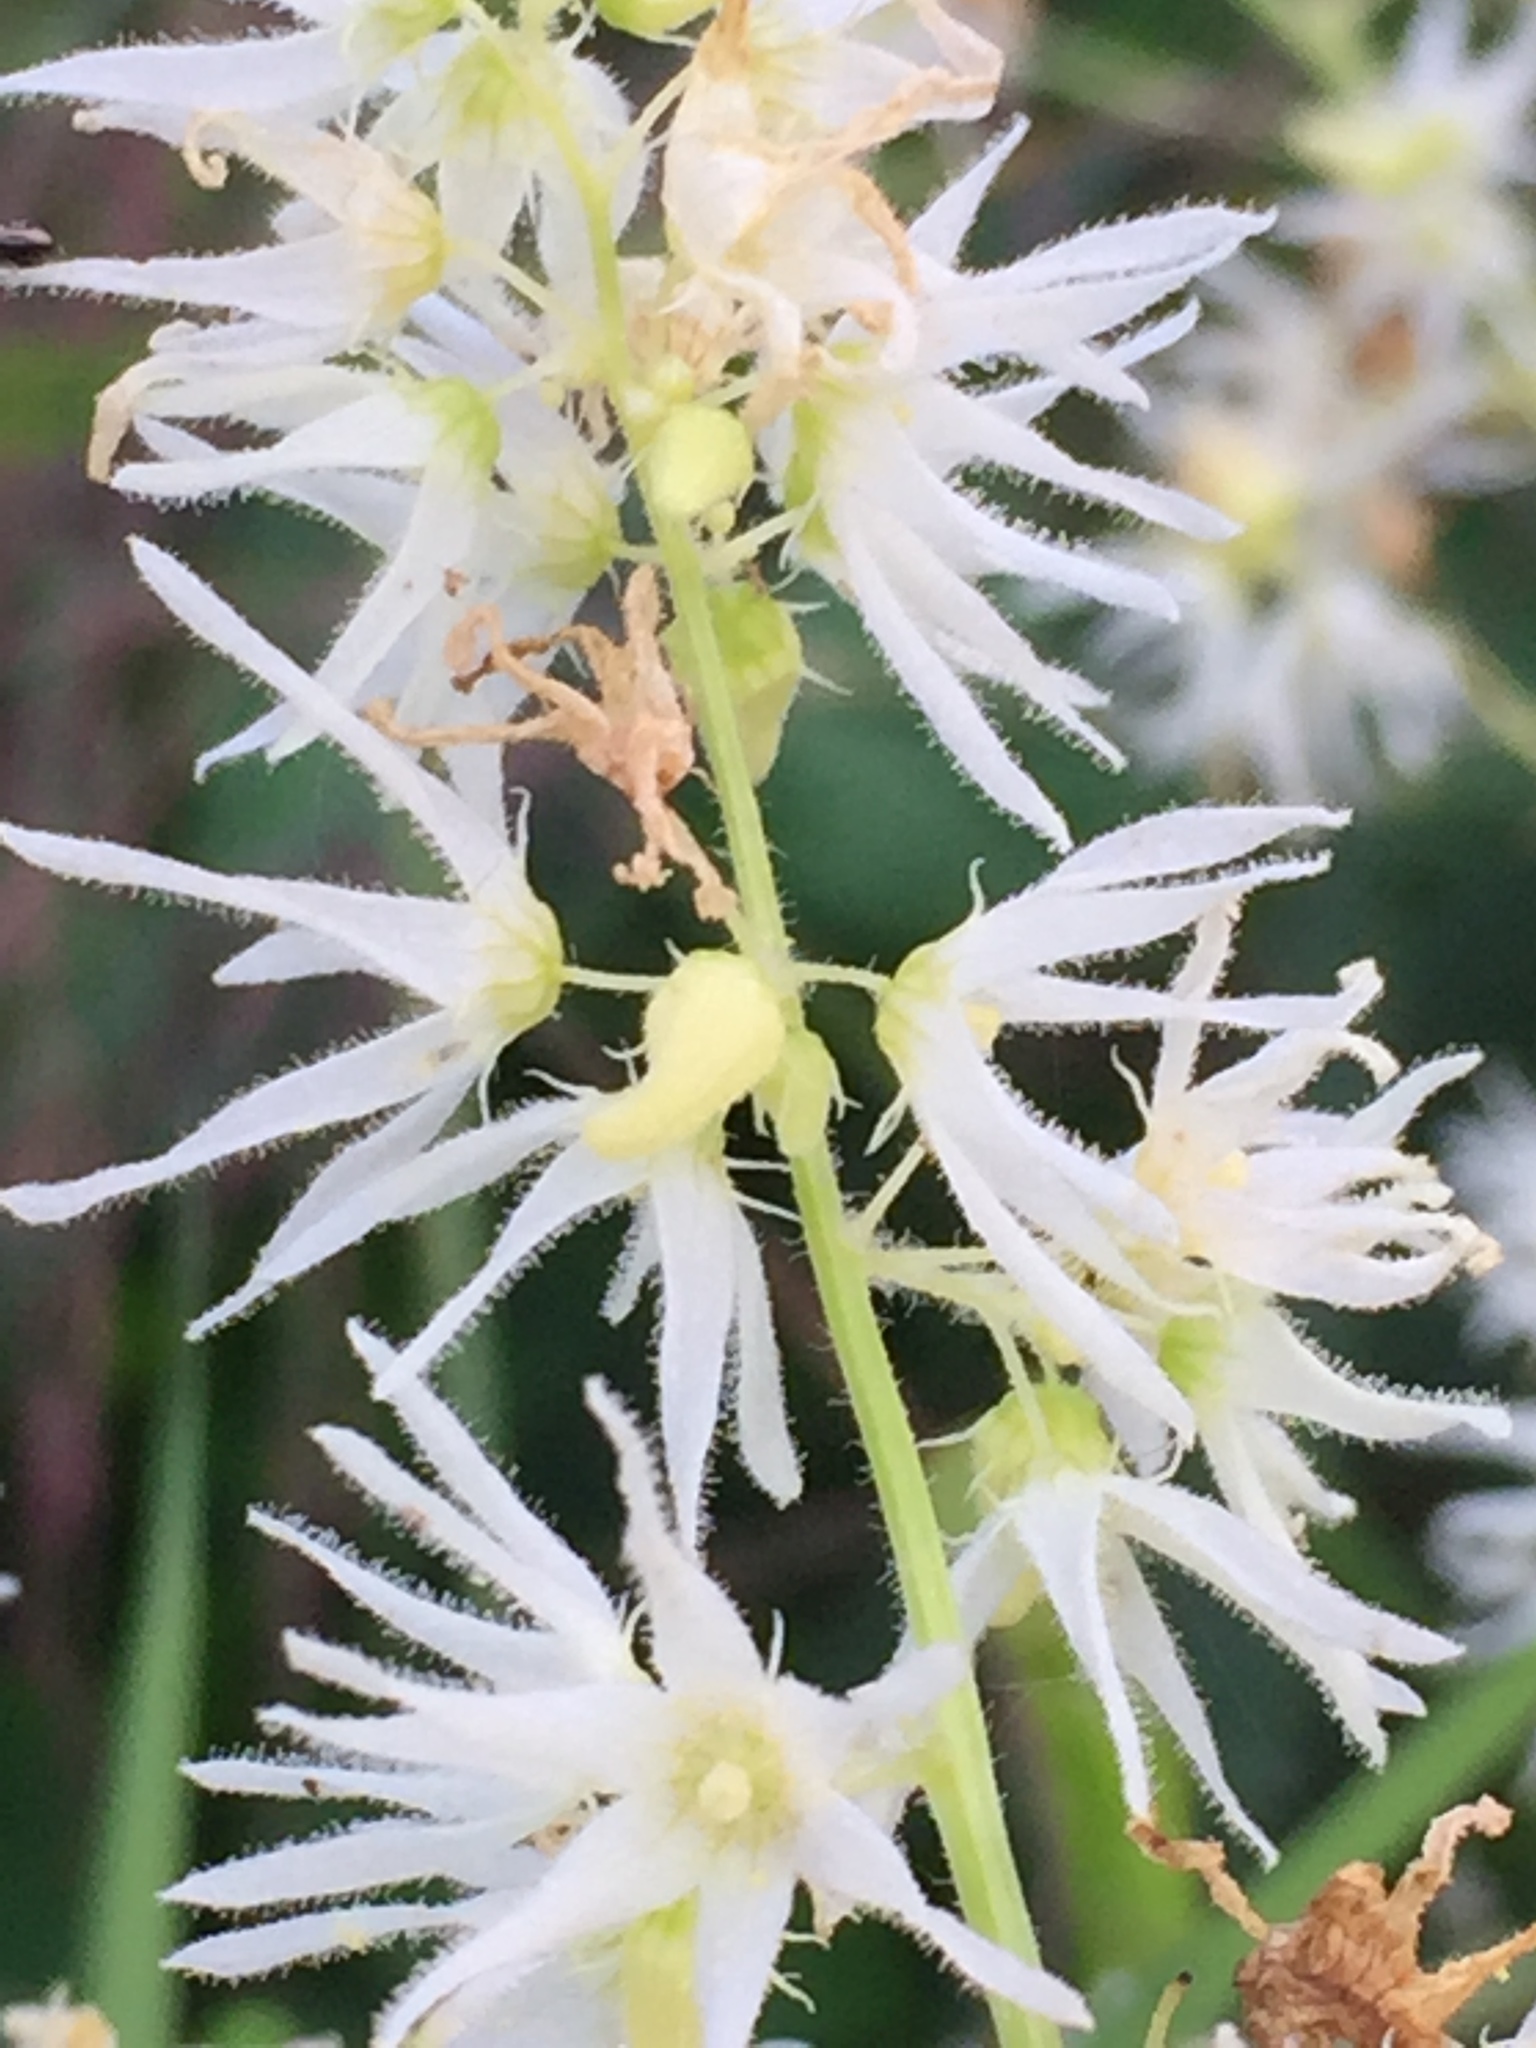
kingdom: Plantae
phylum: Tracheophyta
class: Magnoliopsida
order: Cucurbitales
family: Cucurbitaceae
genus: Echinocystis
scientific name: Echinocystis lobata
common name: Wild cucumber
